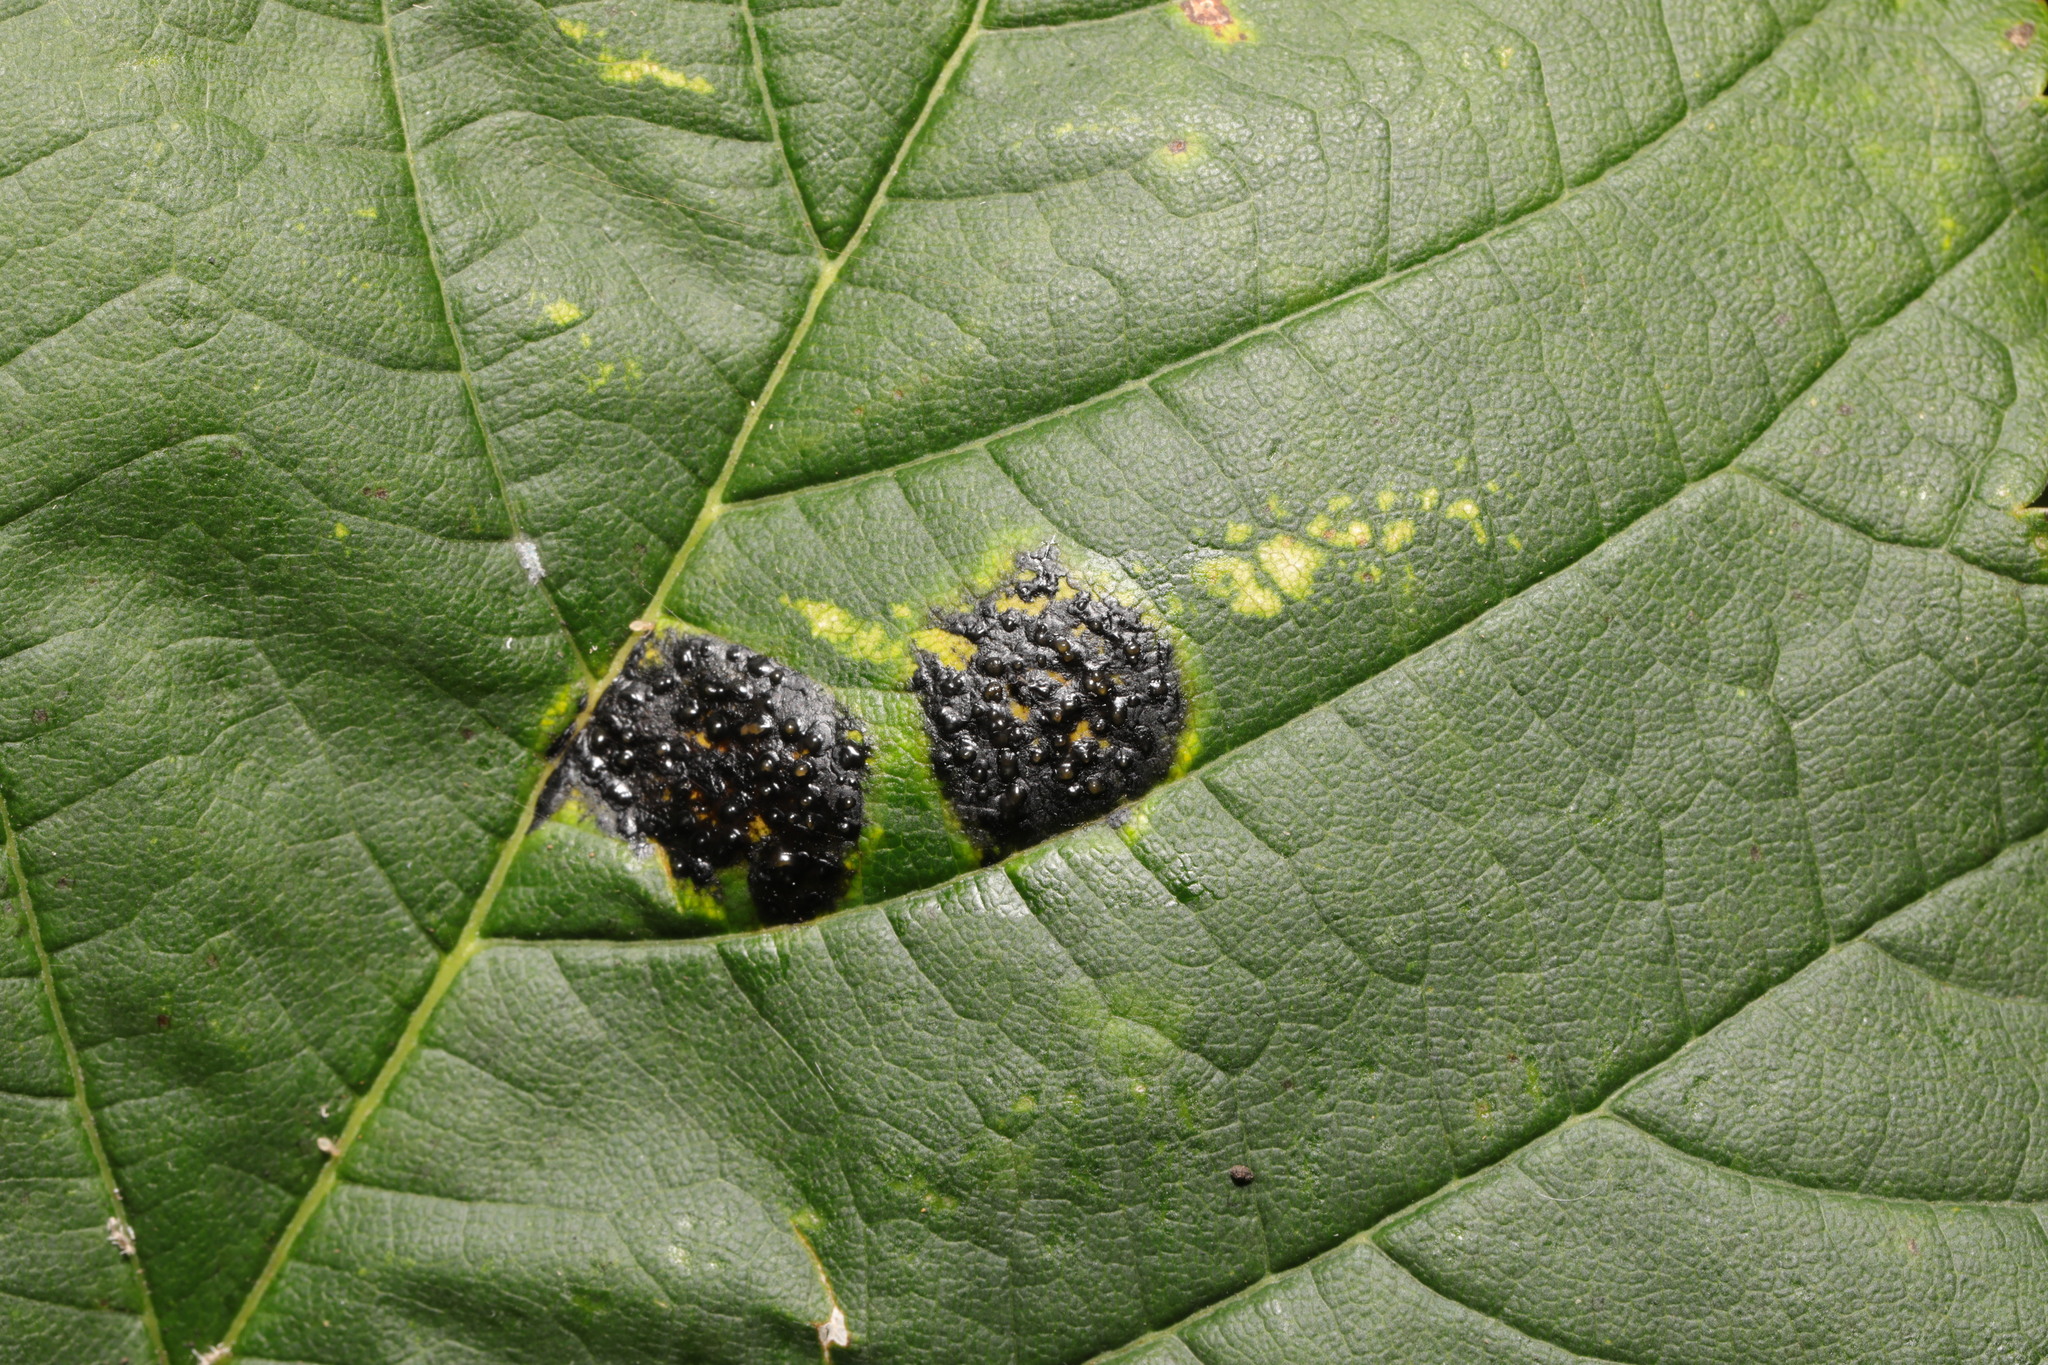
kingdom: Fungi
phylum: Ascomycota
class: Leotiomycetes
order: Rhytismatales
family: Rhytismataceae
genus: Rhytisma
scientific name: Rhytisma acerinum
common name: European tar spot
